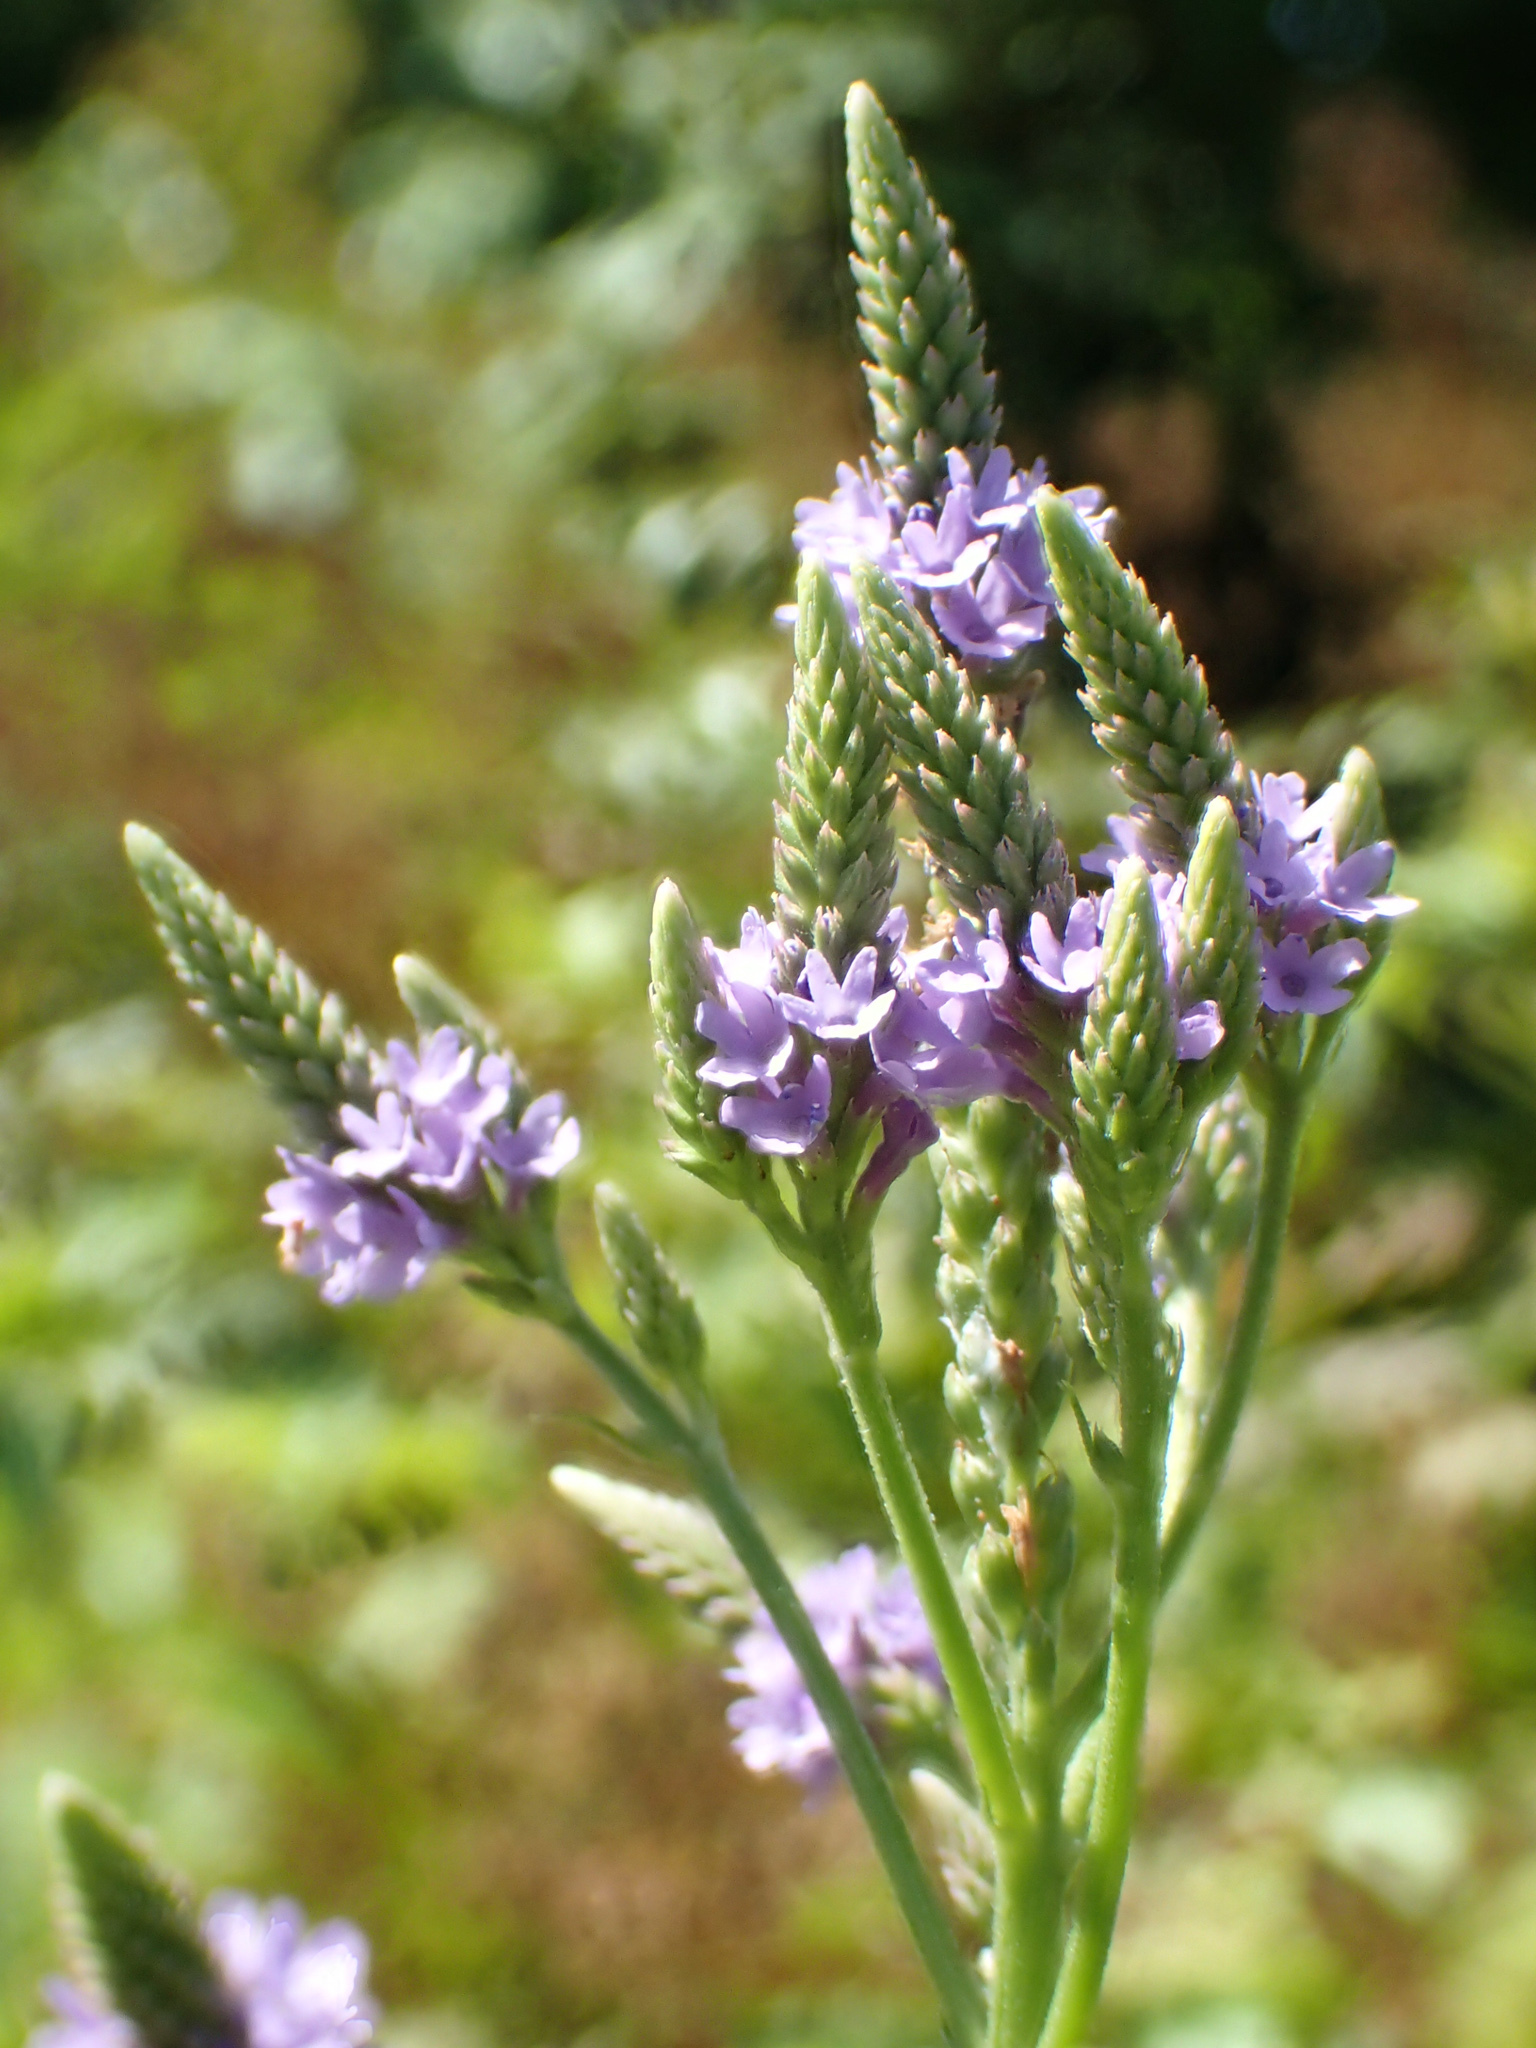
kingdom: Plantae
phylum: Tracheophyta
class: Magnoliopsida
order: Lamiales
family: Verbenaceae
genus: Verbena
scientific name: Verbena hastata
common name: American blue vervain
